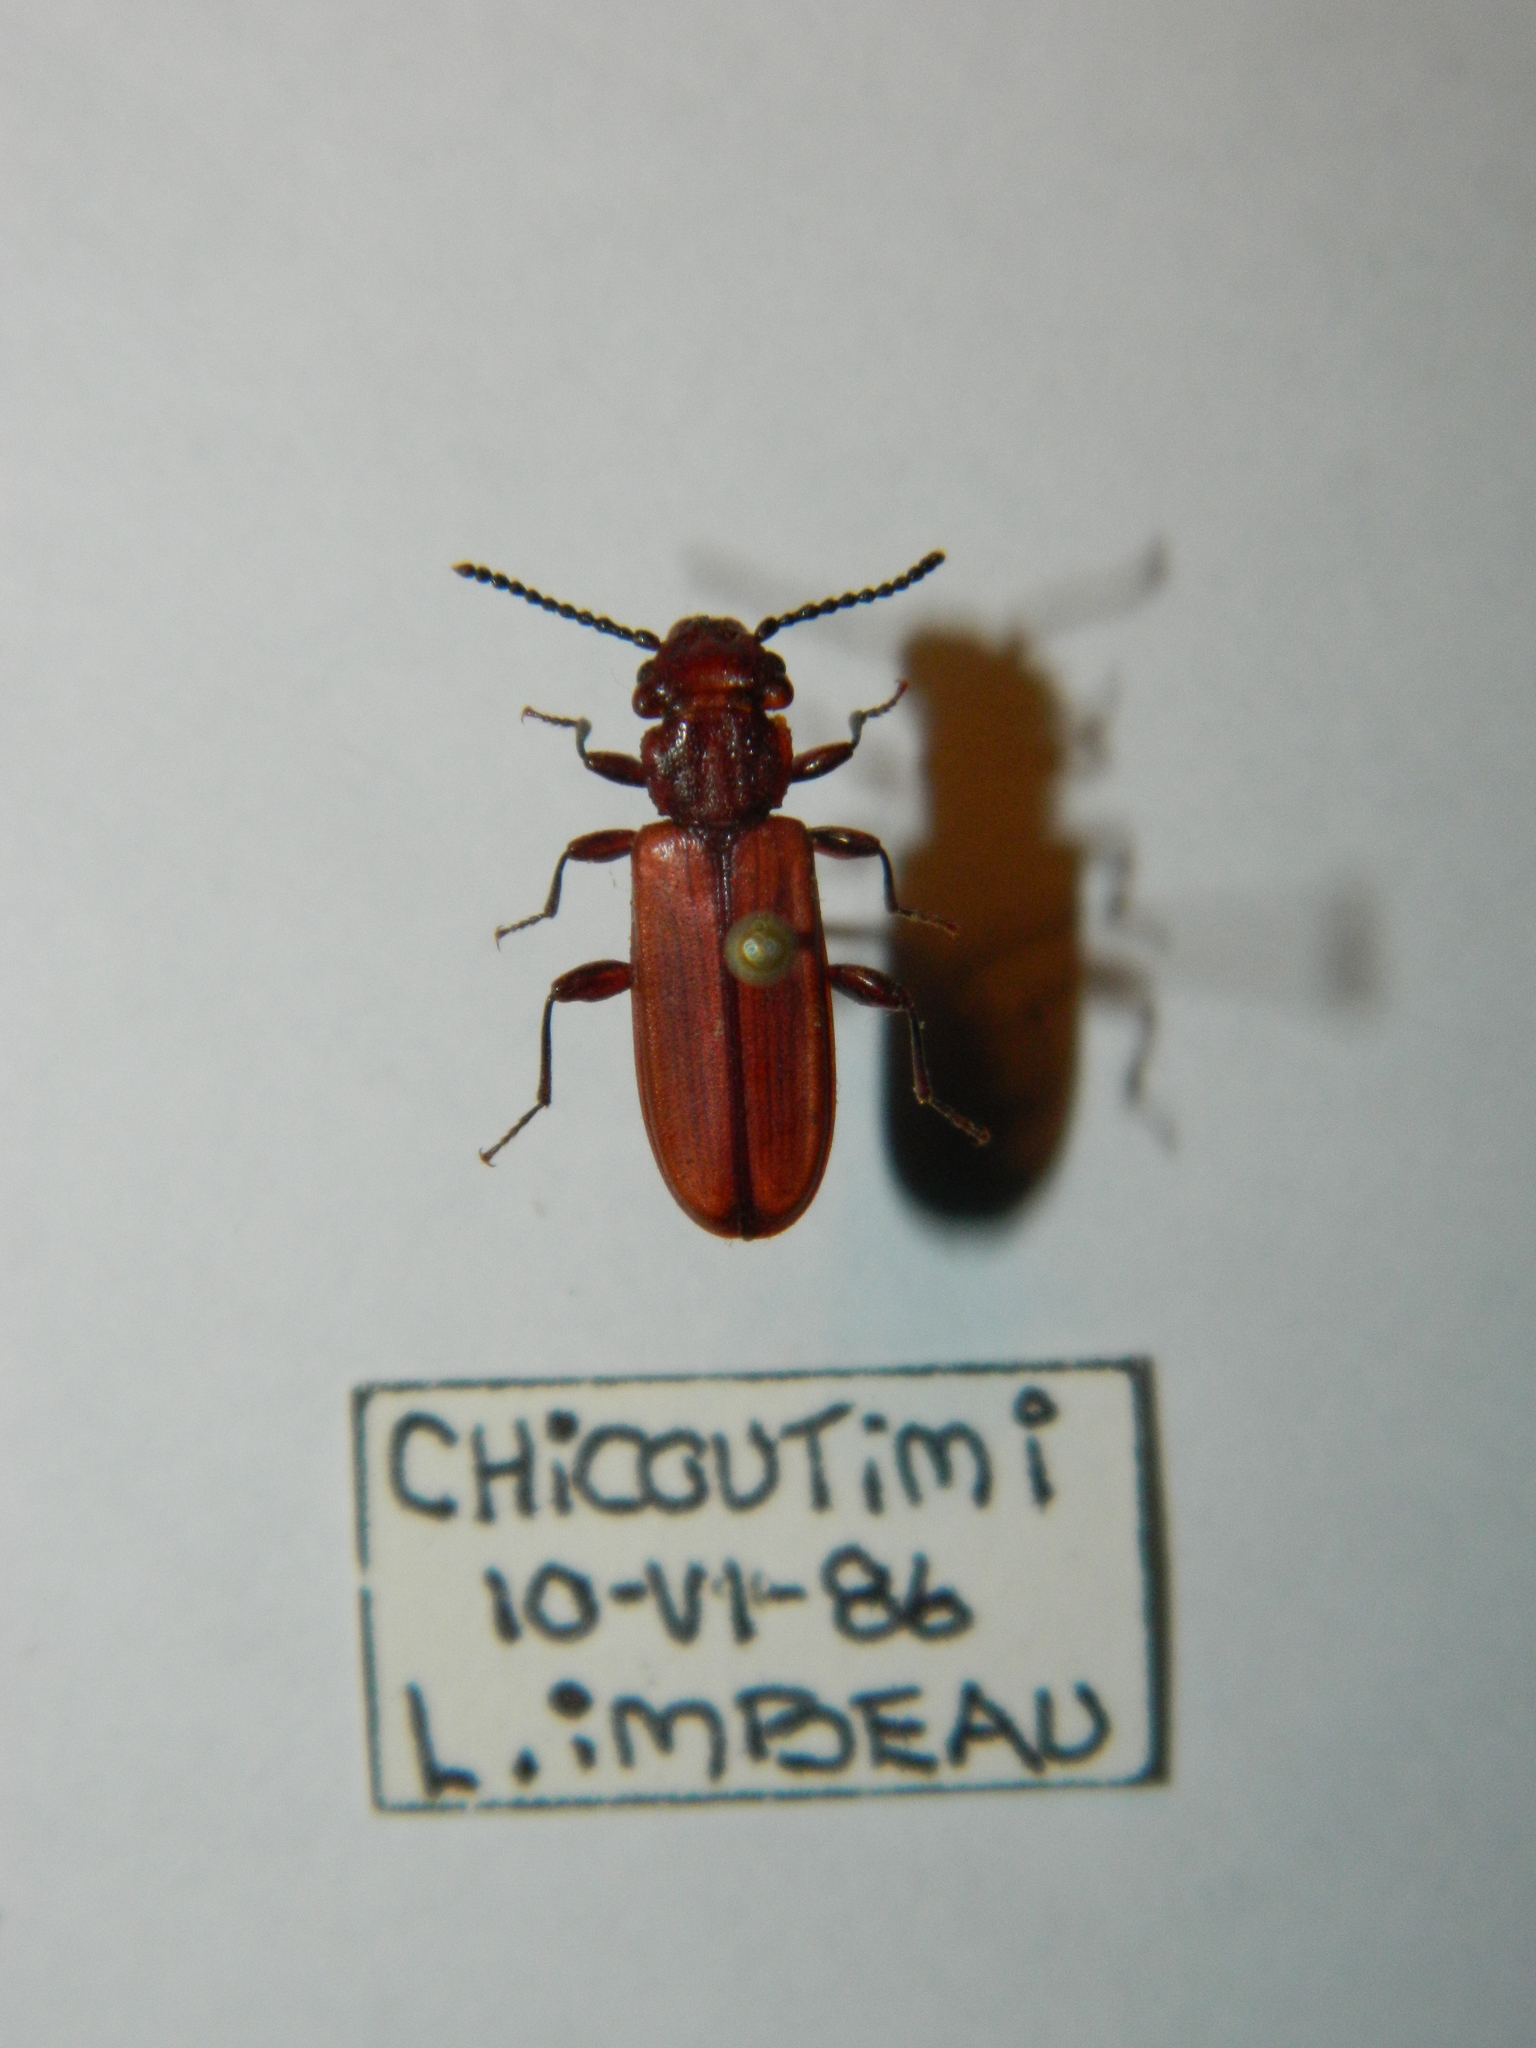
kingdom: Animalia
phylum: Arthropoda
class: Insecta
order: Coleoptera
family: Cucujidae
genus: Cucujus
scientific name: Cucujus clavipes
